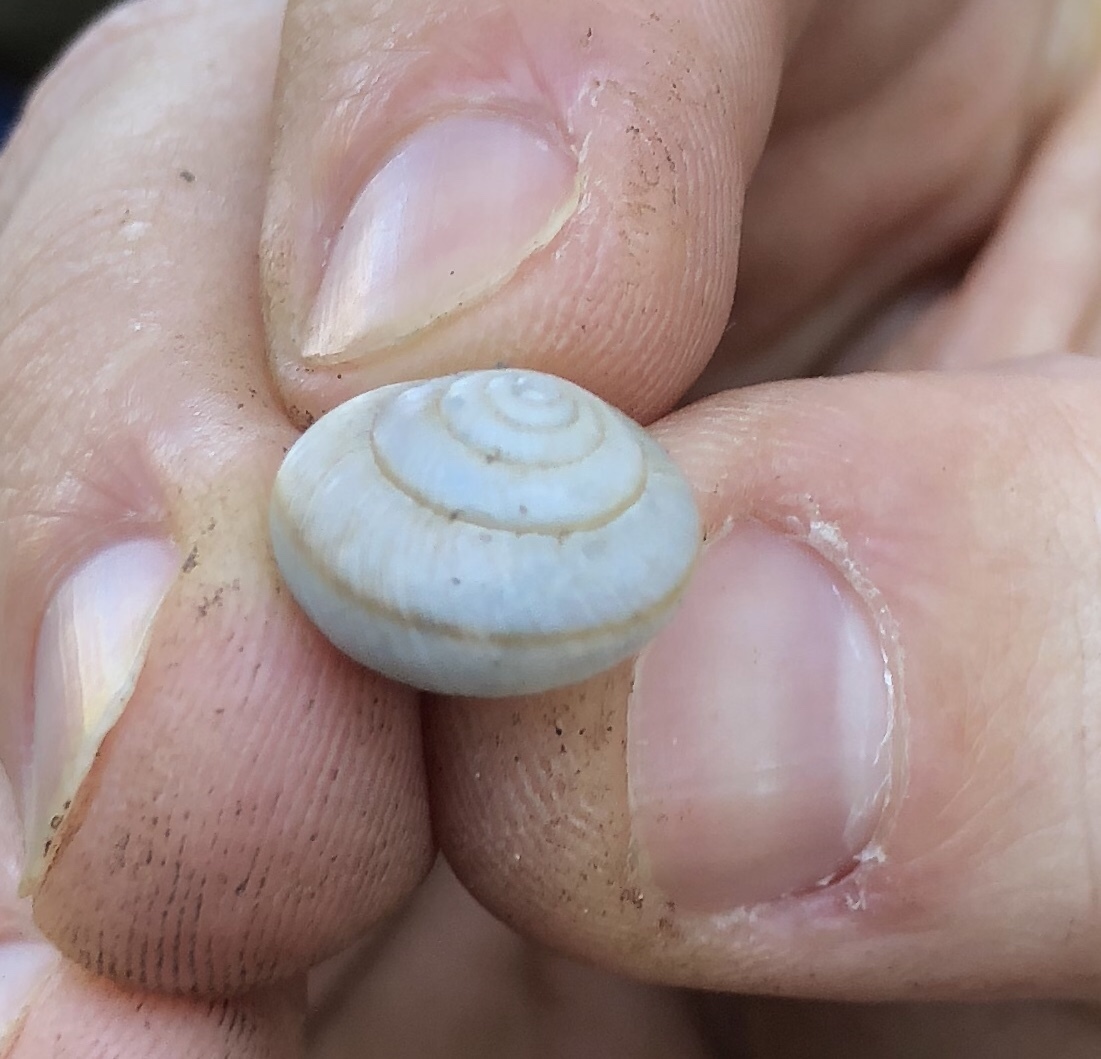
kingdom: Animalia
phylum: Mollusca
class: Gastropoda
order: Stylommatophora
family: Camaenidae
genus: Bradybaena
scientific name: Bradybaena similaris
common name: Asian trampsnail
